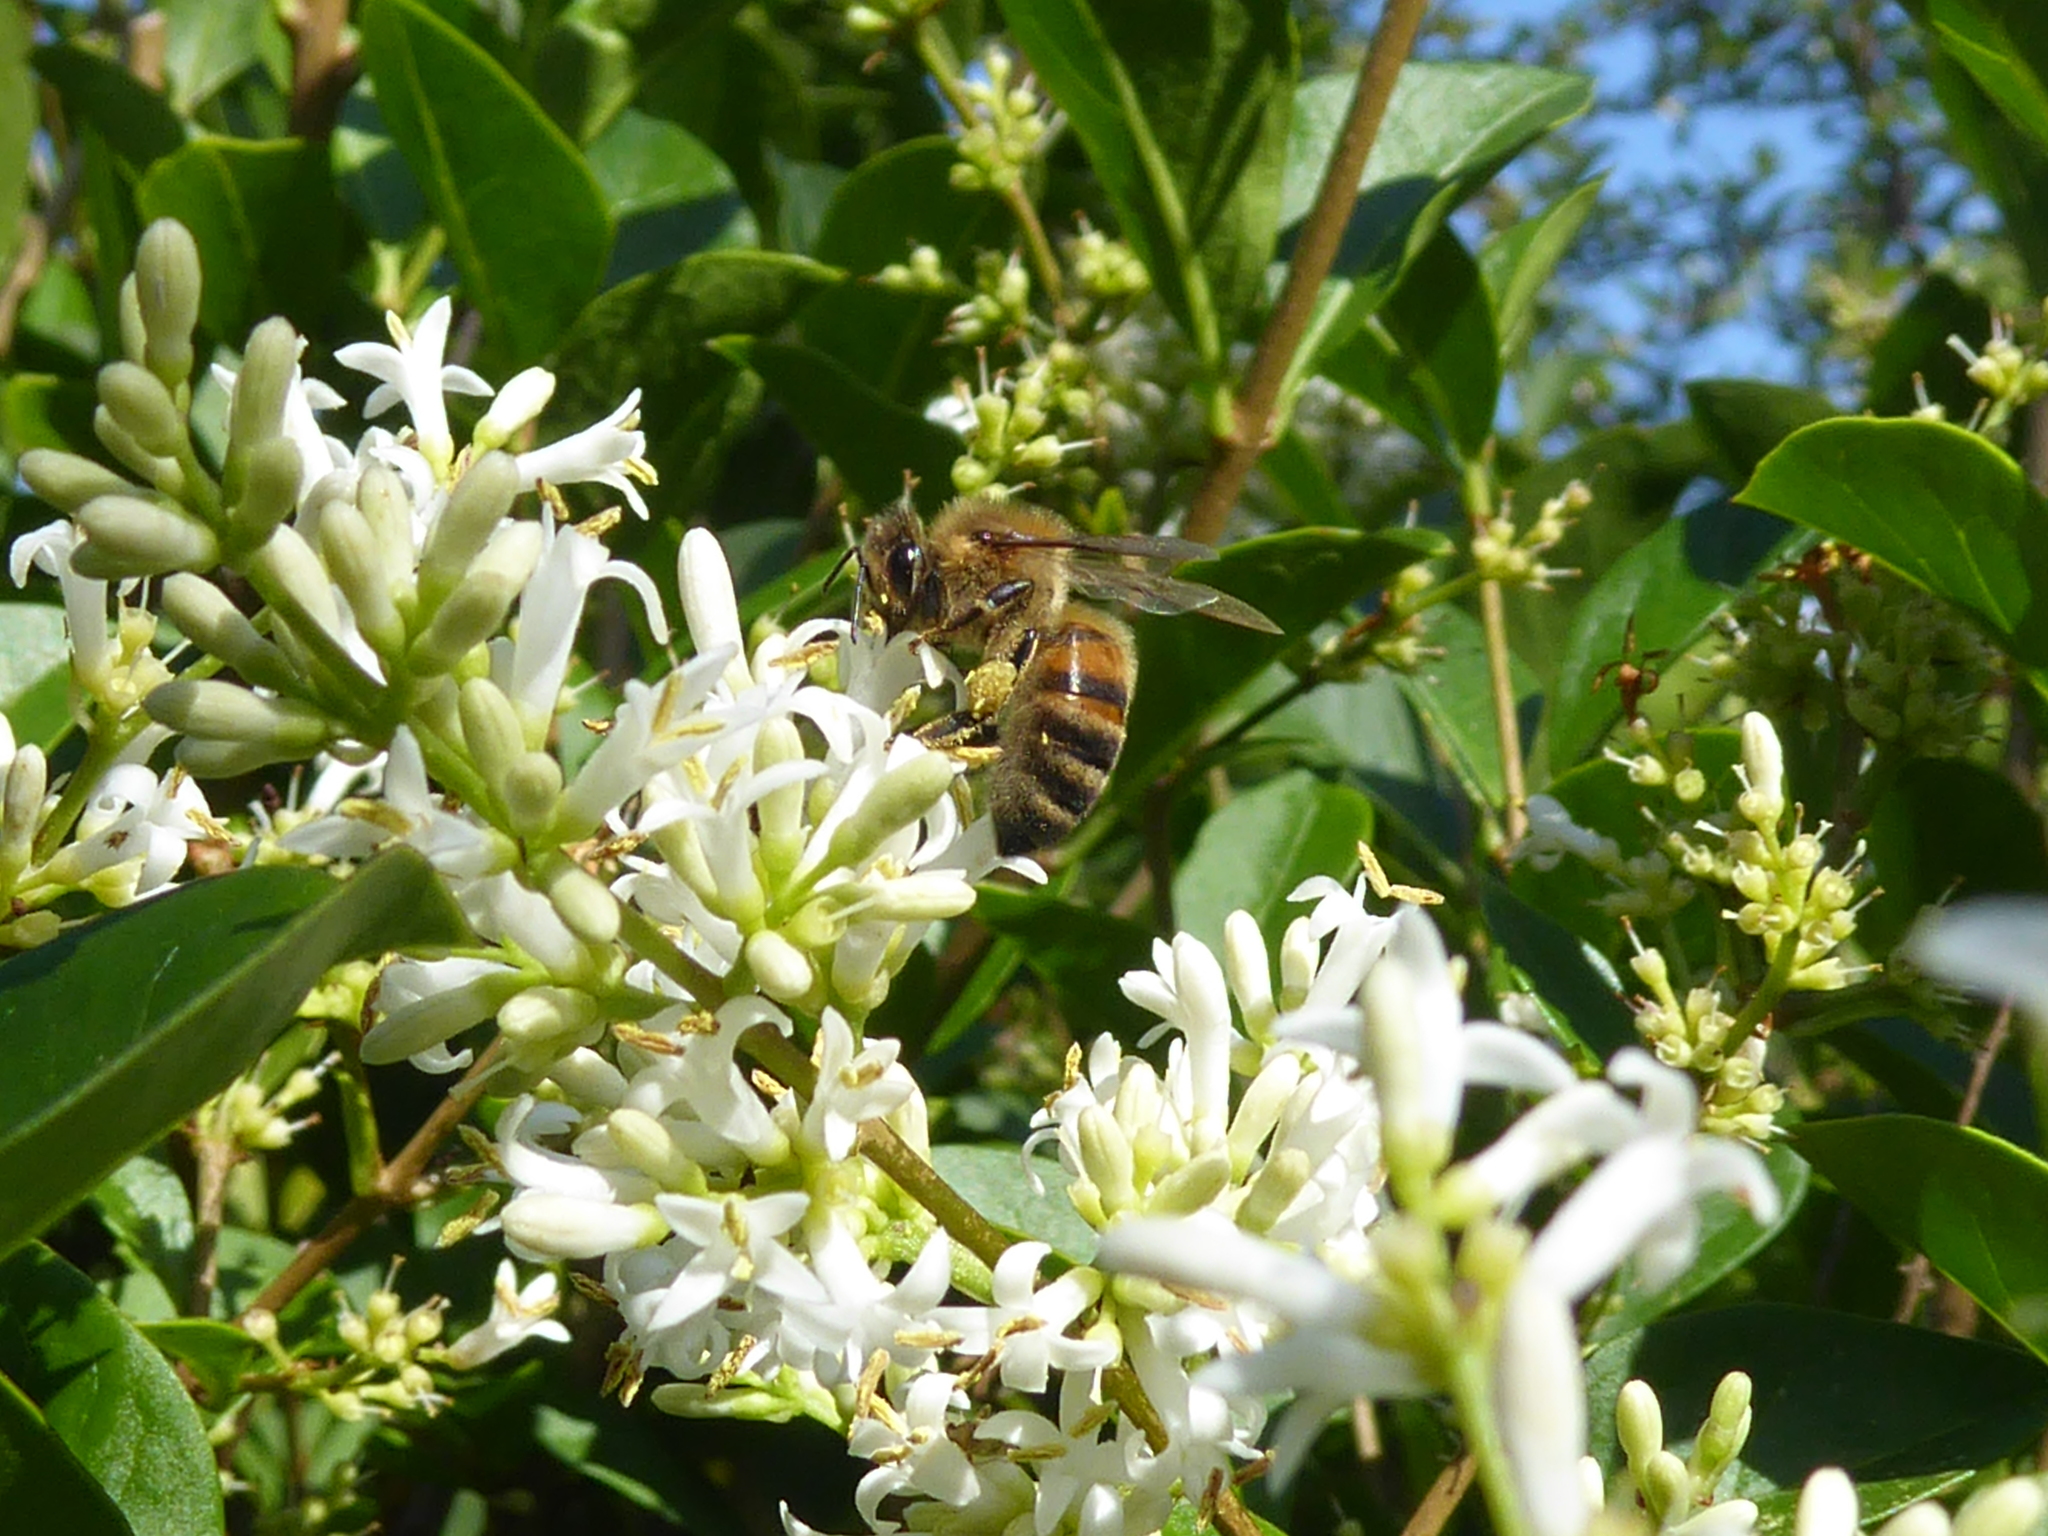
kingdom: Animalia
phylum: Arthropoda
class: Insecta
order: Hymenoptera
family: Apidae
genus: Apis
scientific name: Apis mellifera
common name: Honey bee
